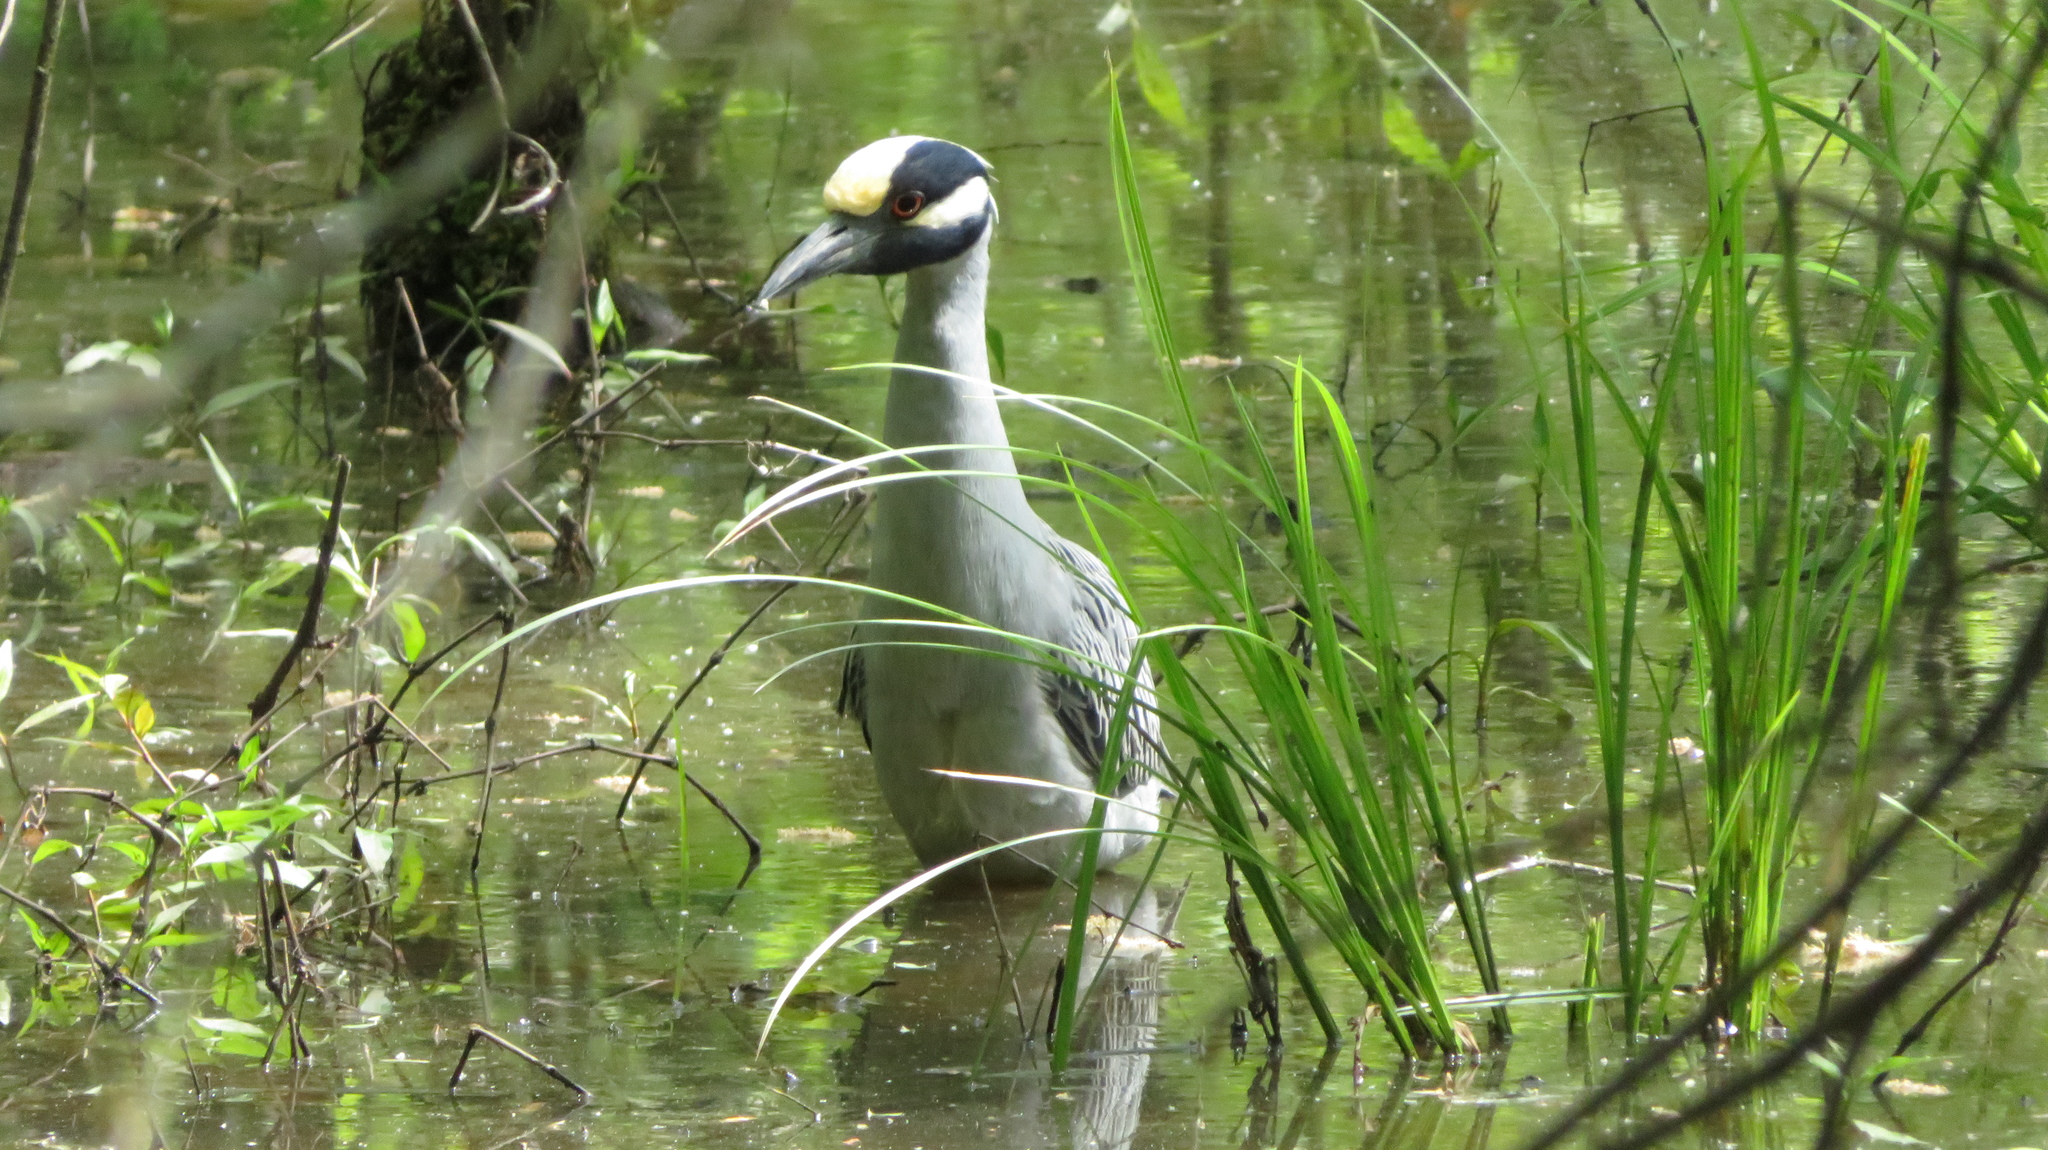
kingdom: Animalia
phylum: Chordata
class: Aves
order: Pelecaniformes
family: Ardeidae
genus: Nyctanassa
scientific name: Nyctanassa violacea
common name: Yellow-crowned night heron
